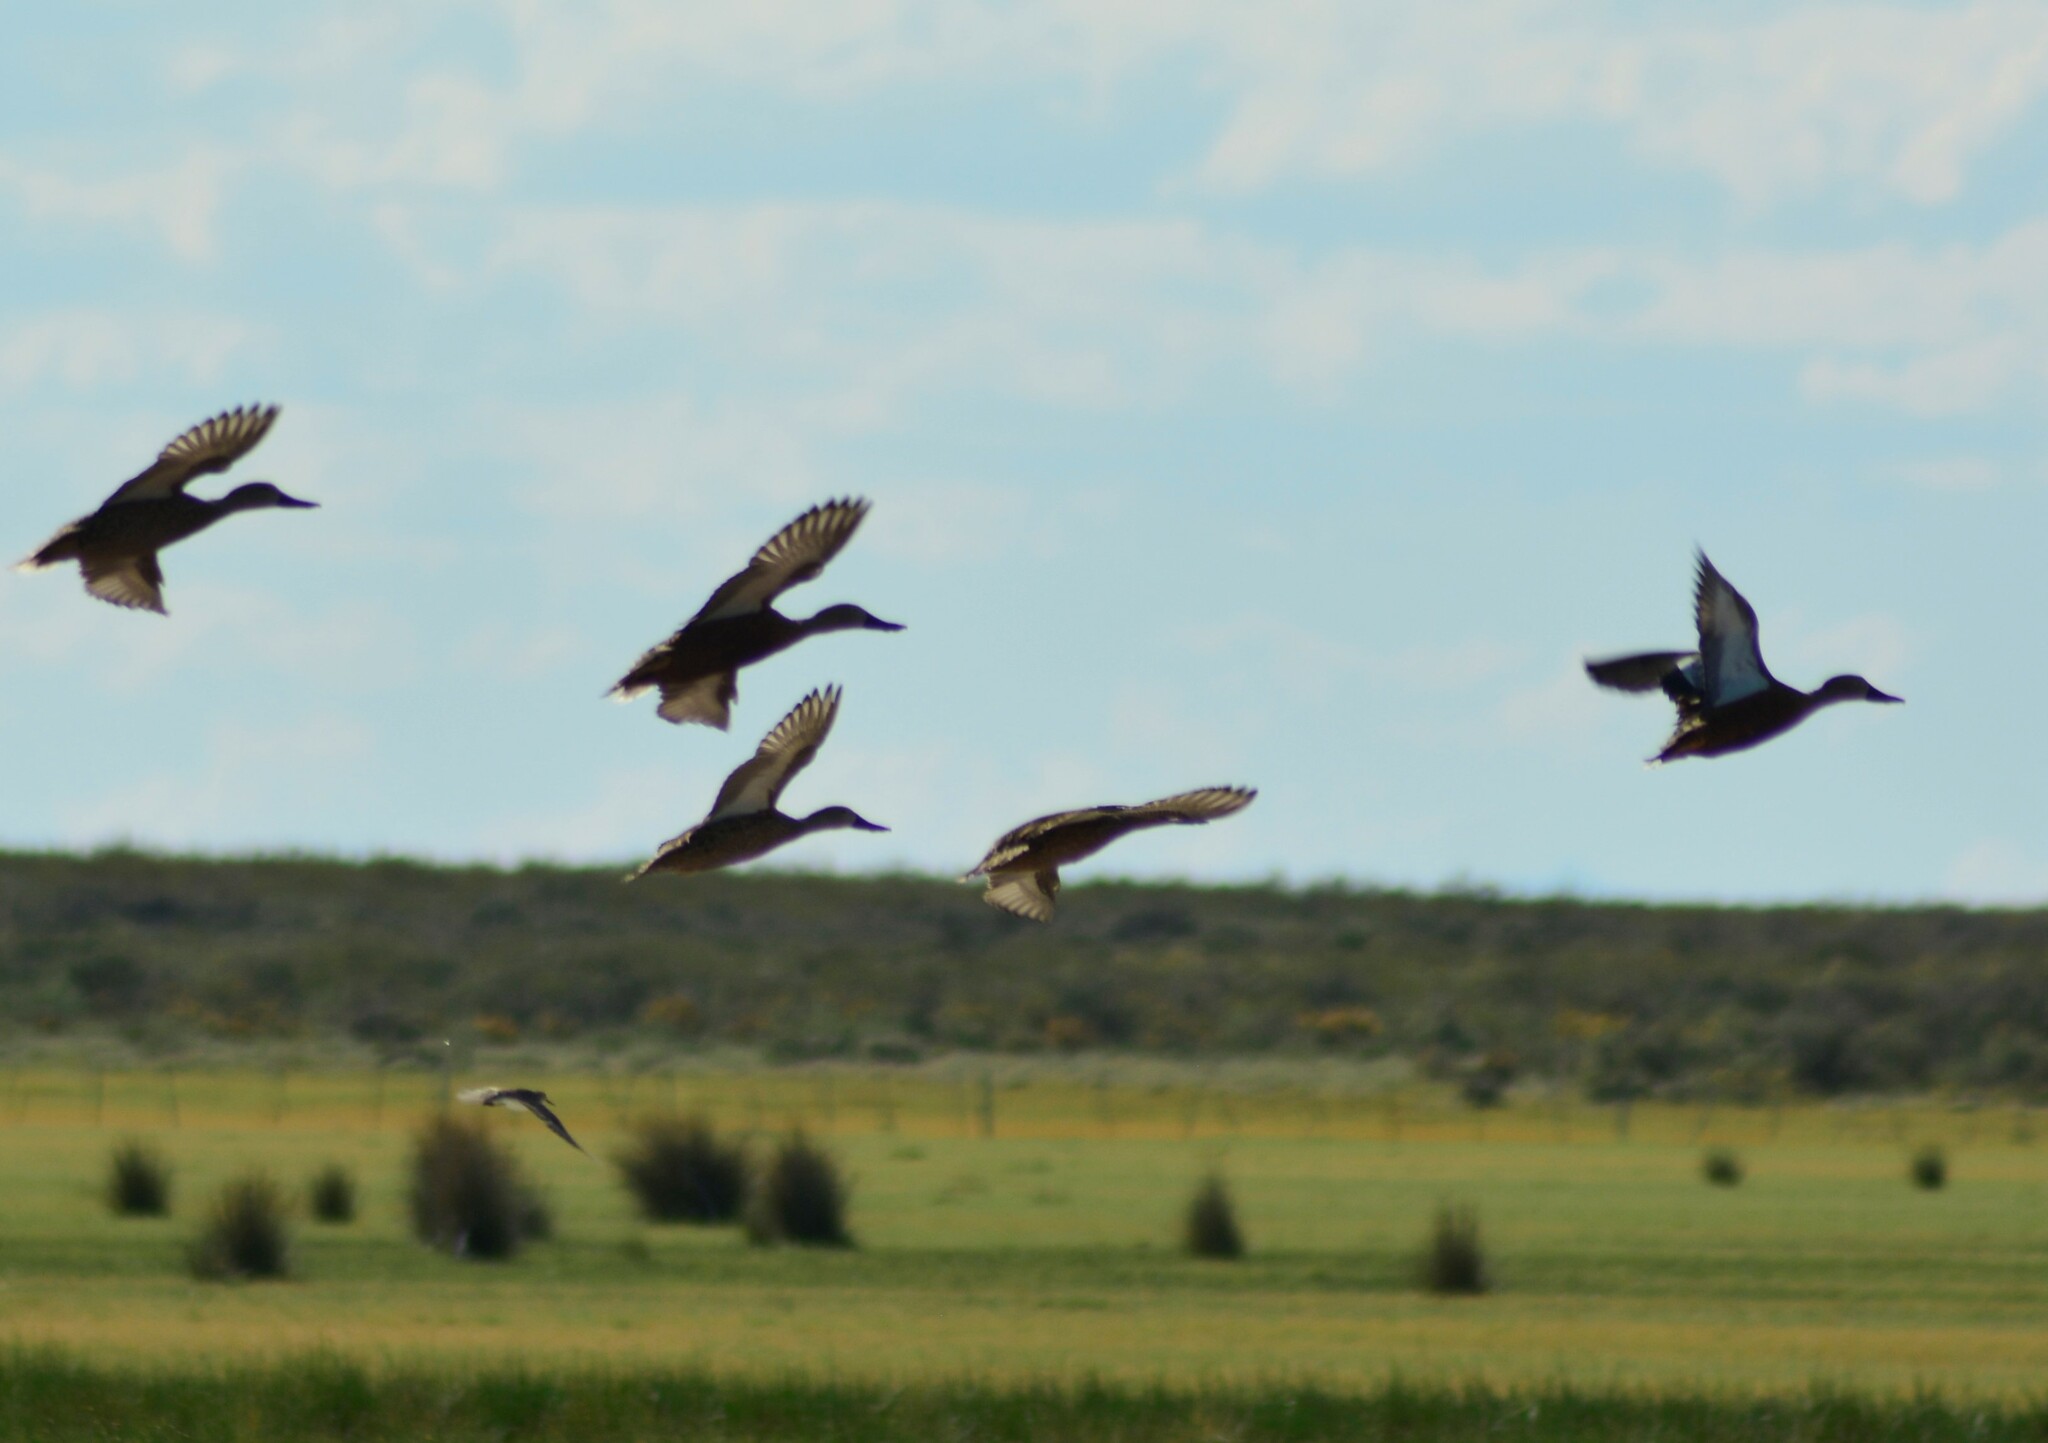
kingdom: Animalia
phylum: Chordata
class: Aves
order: Anseriformes
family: Anatidae
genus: Spatula
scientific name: Spatula platalea
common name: Red shoveler
